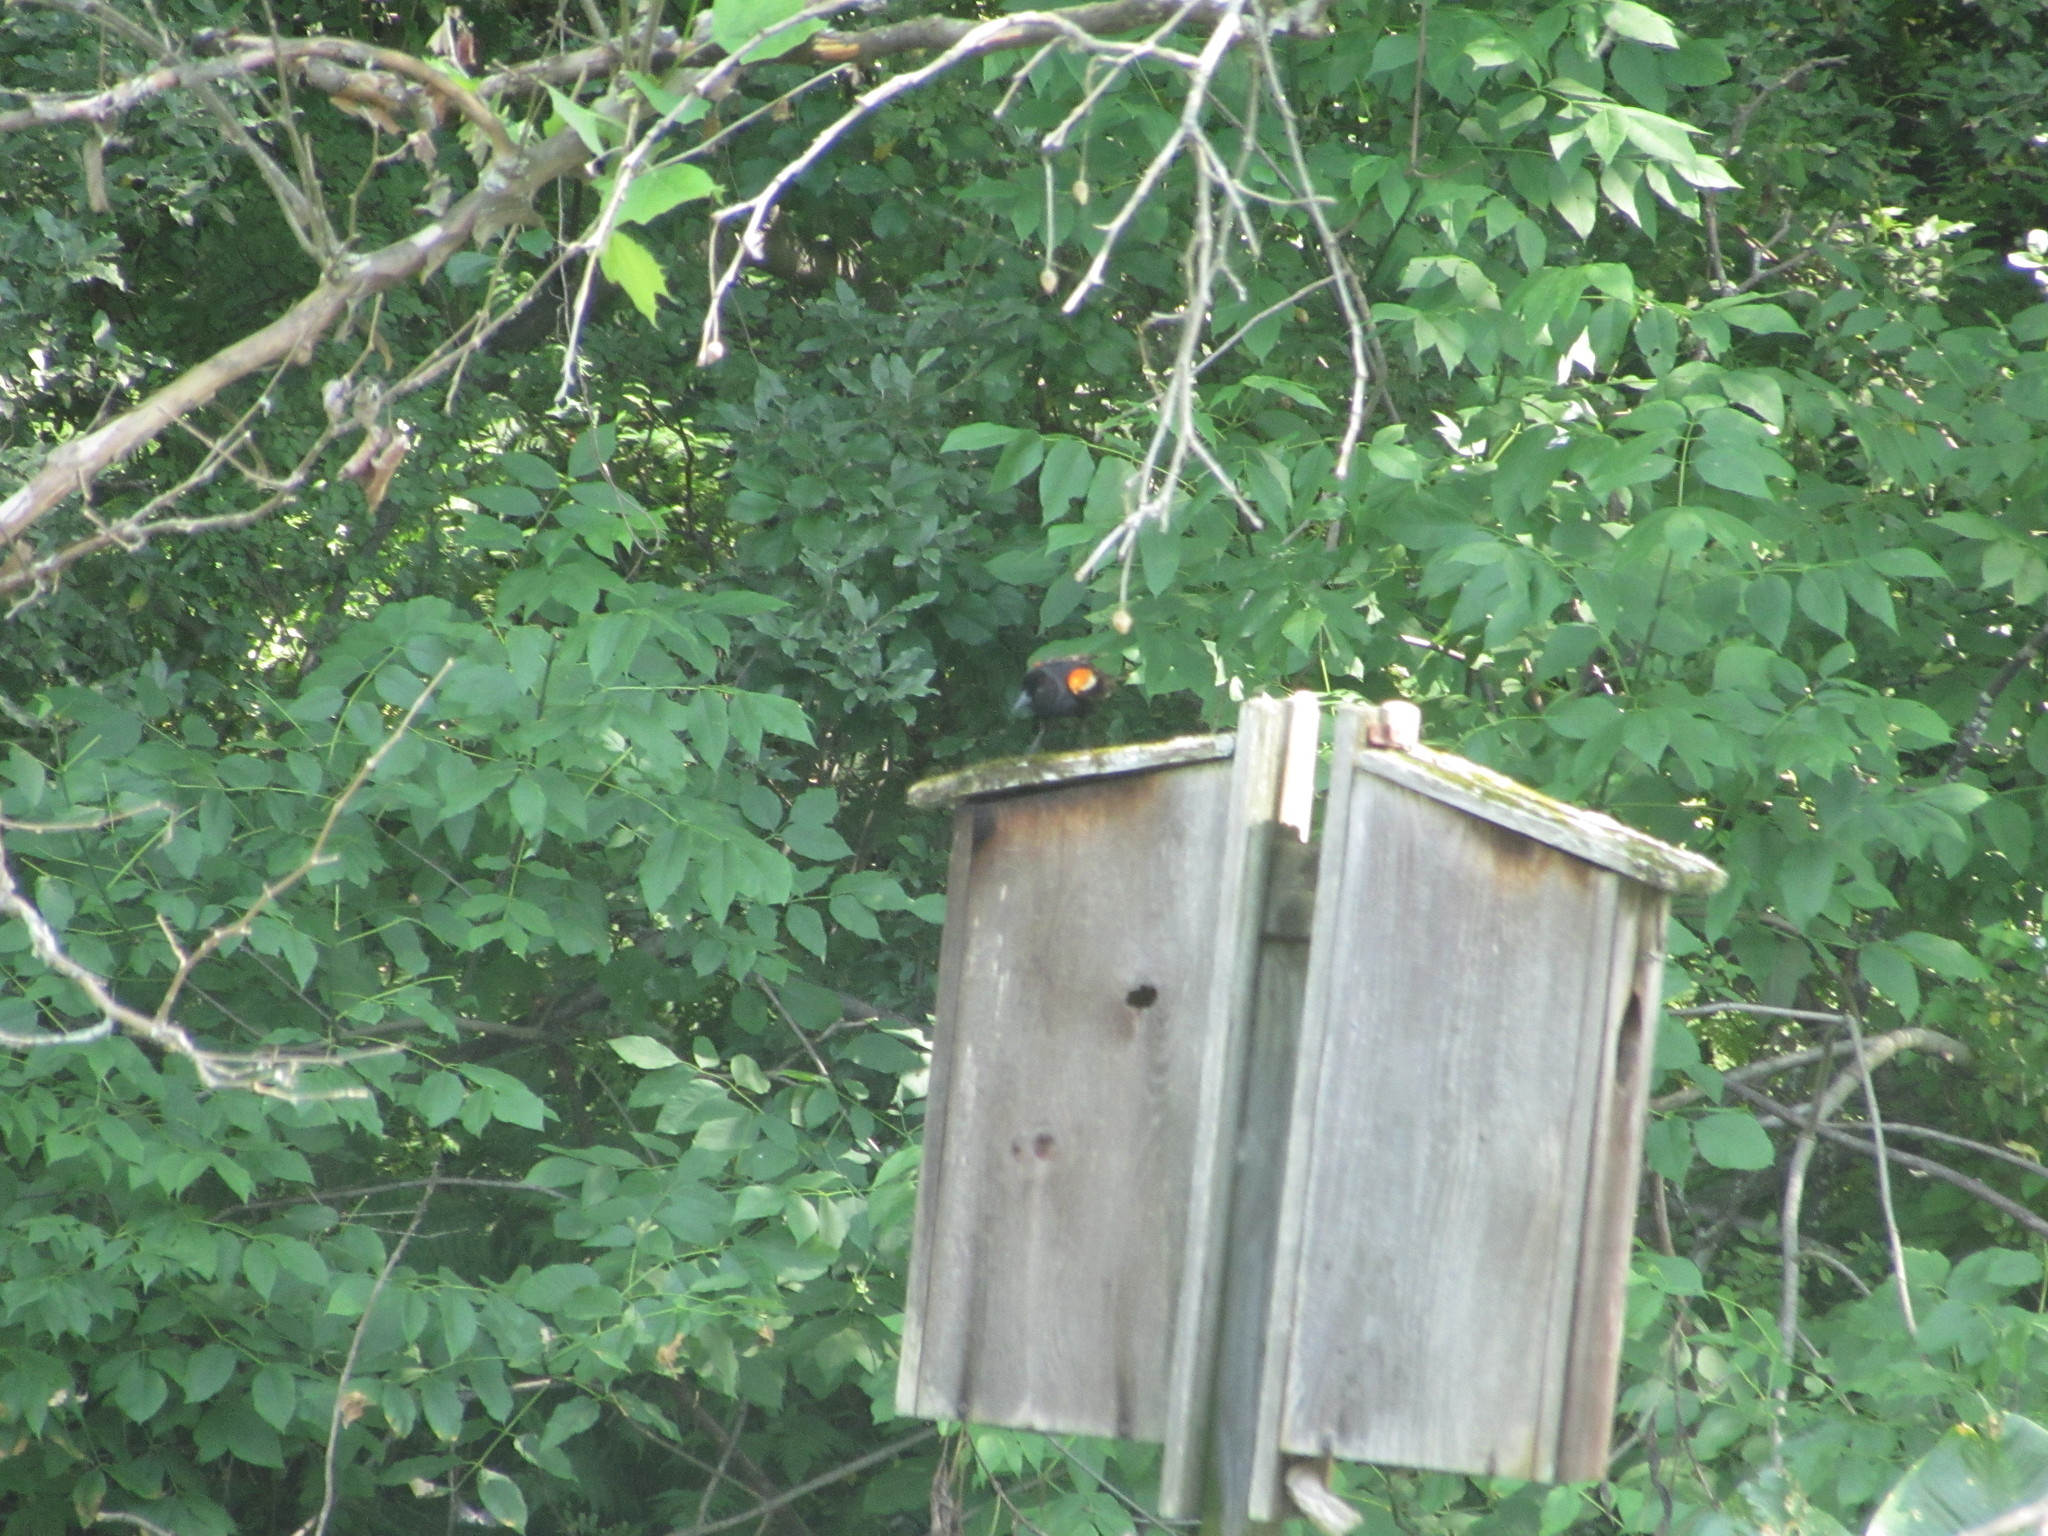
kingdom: Animalia
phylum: Chordata
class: Aves
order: Passeriformes
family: Icteridae
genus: Agelaius
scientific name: Agelaius phoeniceus
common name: Red-winged blackbird
